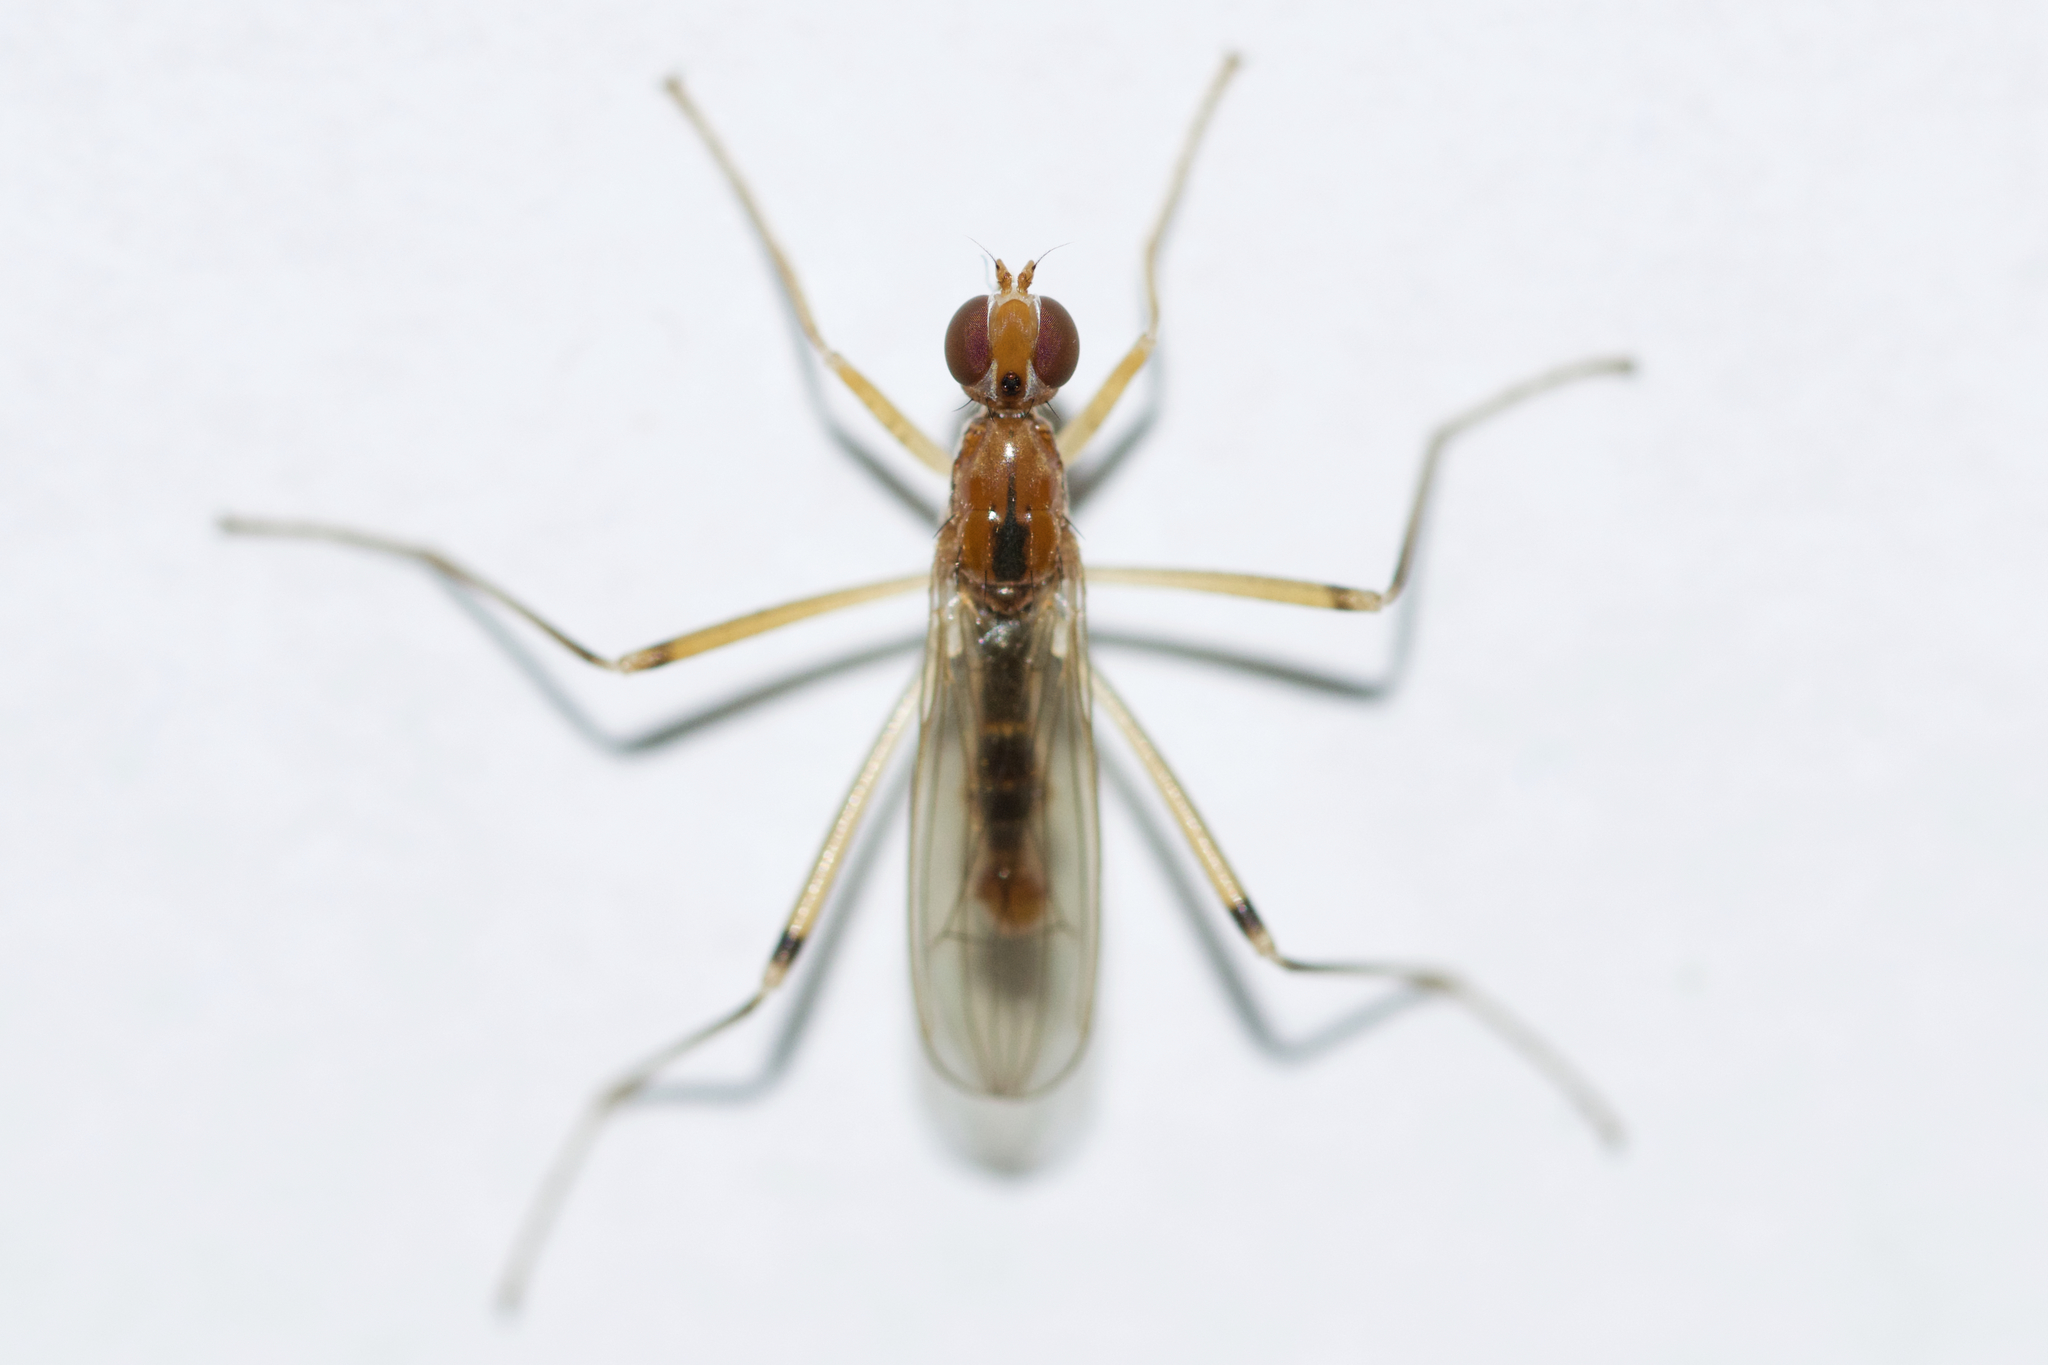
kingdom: Animalia
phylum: Arthropoda
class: Insecta
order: Diptera
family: Micropezidae
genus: Compsobata
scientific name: Compsobata univitta
